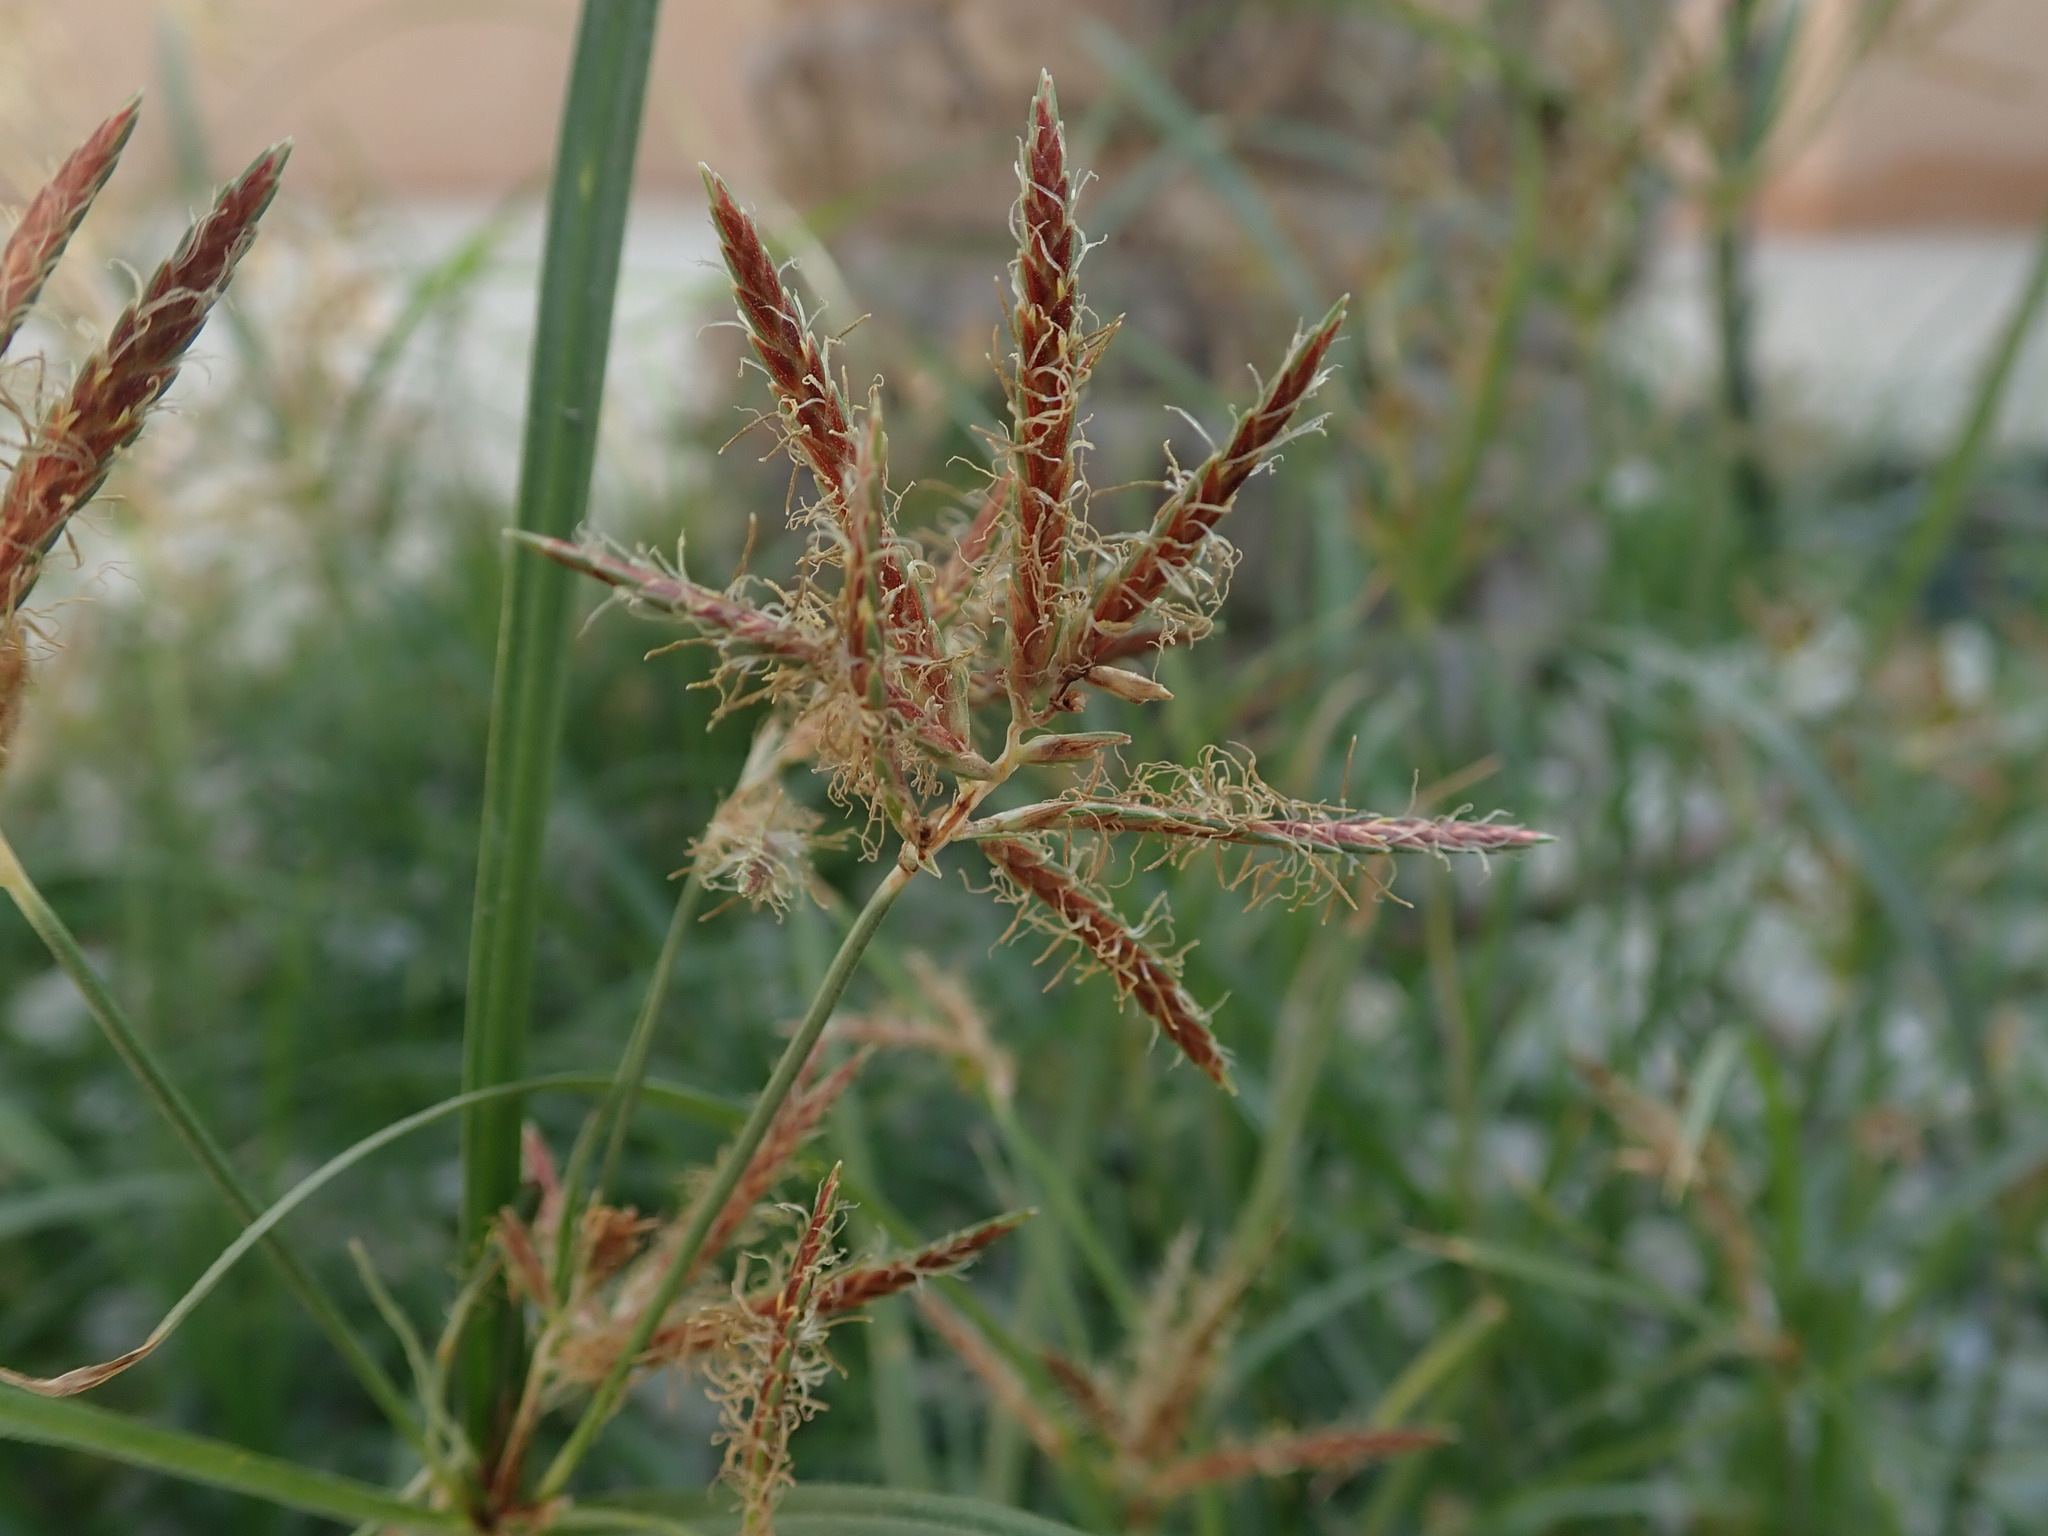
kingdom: Plantae
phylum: Tracheophyta
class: Liliopsida
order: Poales
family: Cyperaceae
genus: Cyperus
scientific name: Cyperus rotundus
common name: Nutgrass
